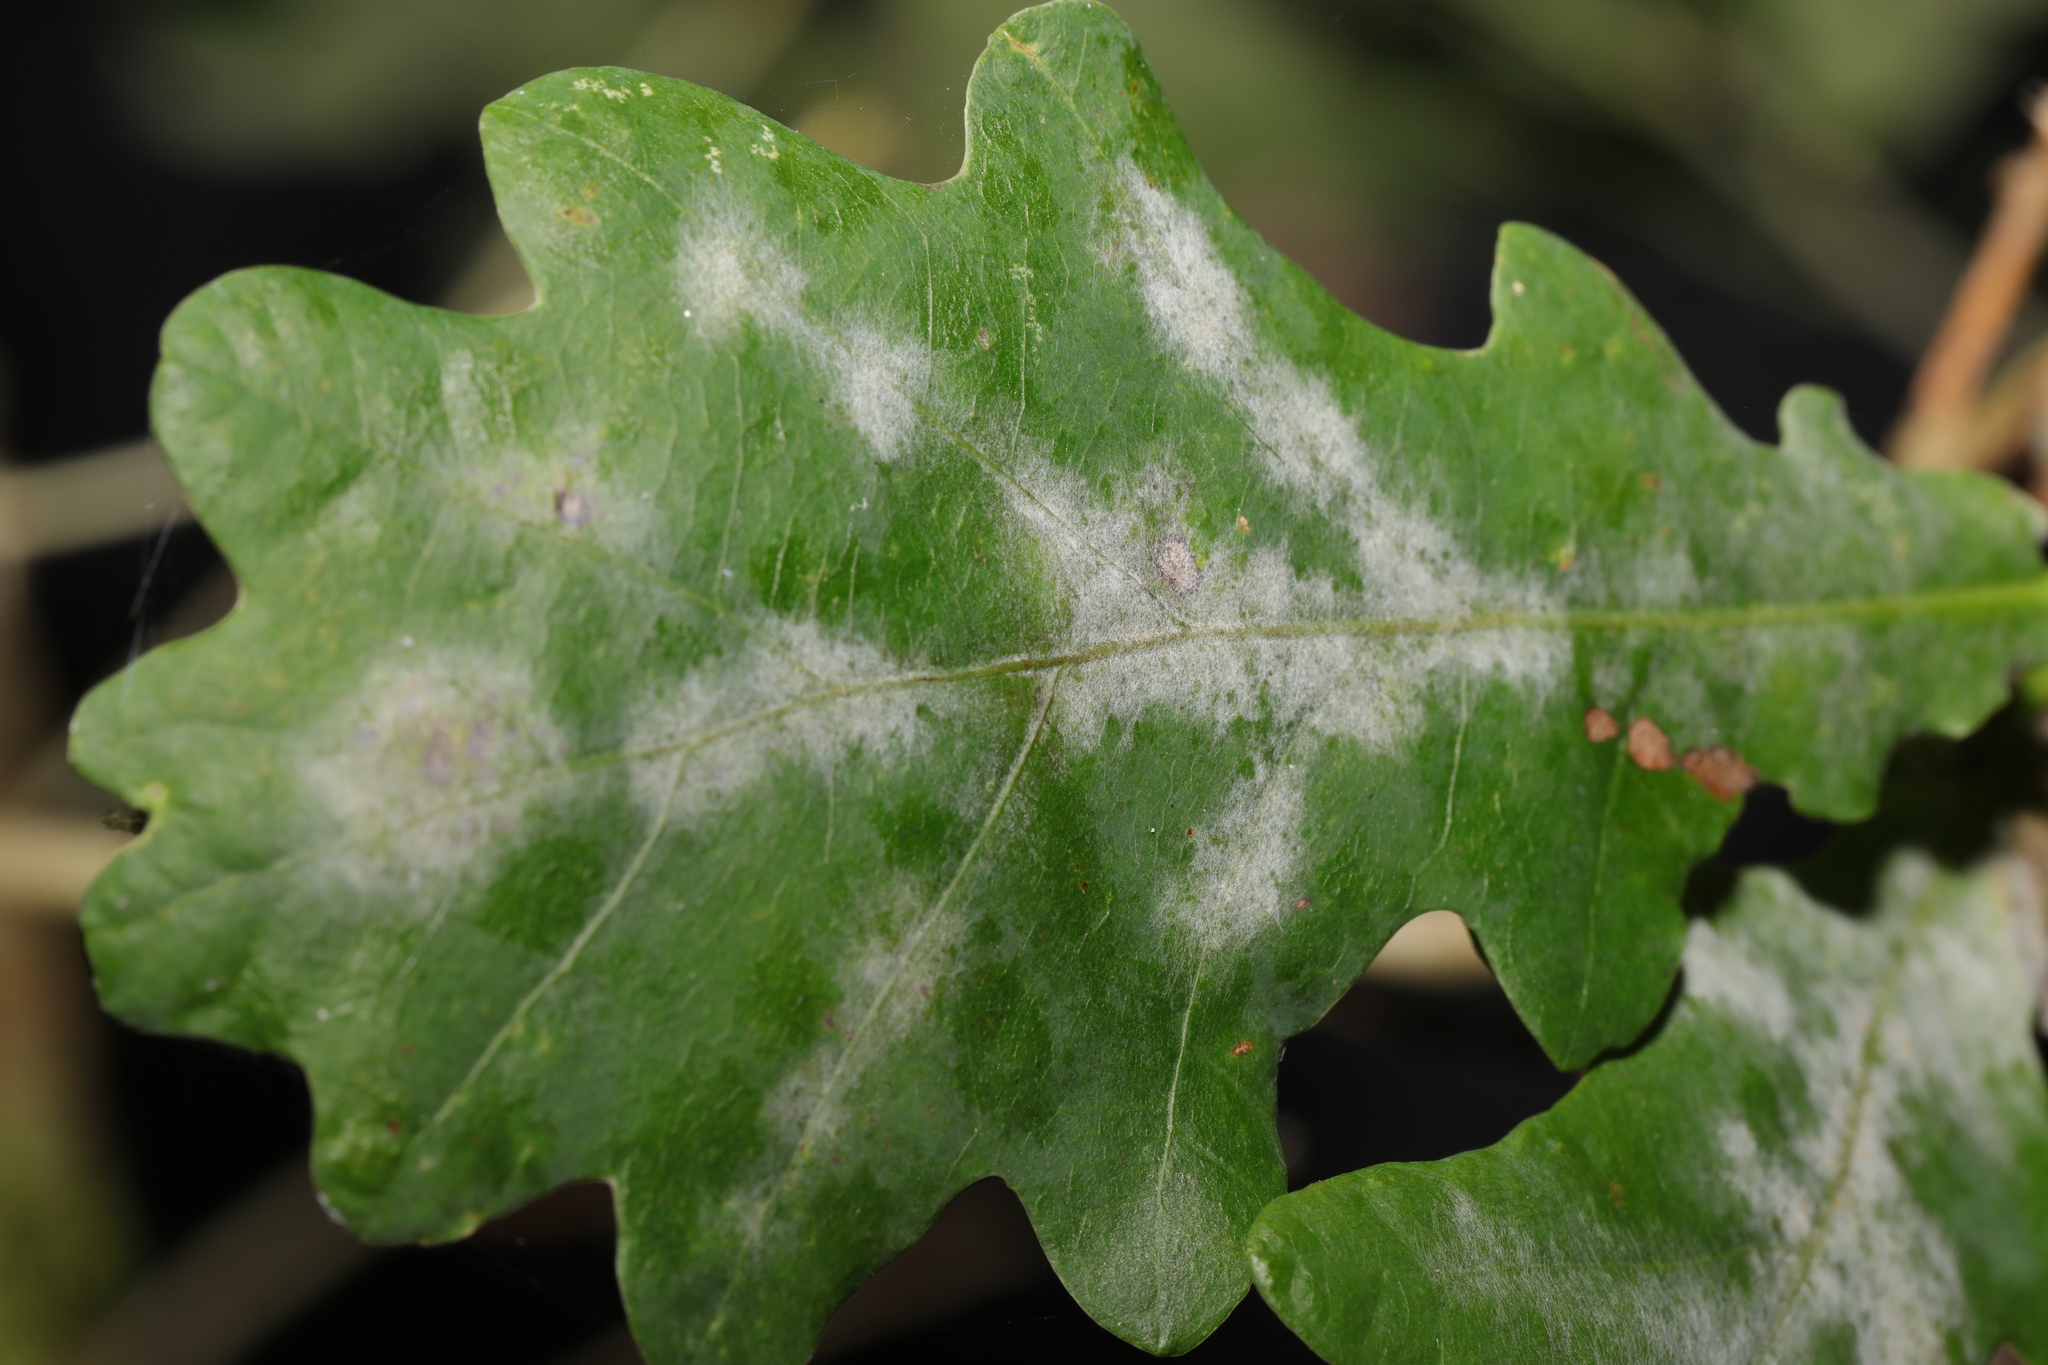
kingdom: Fungi
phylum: Ascomycota
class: Leotiomycetes
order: Helotiales
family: Erysiphaceae
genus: Erysiphe
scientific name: Erysiphe alphitoides
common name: Oak mildew
